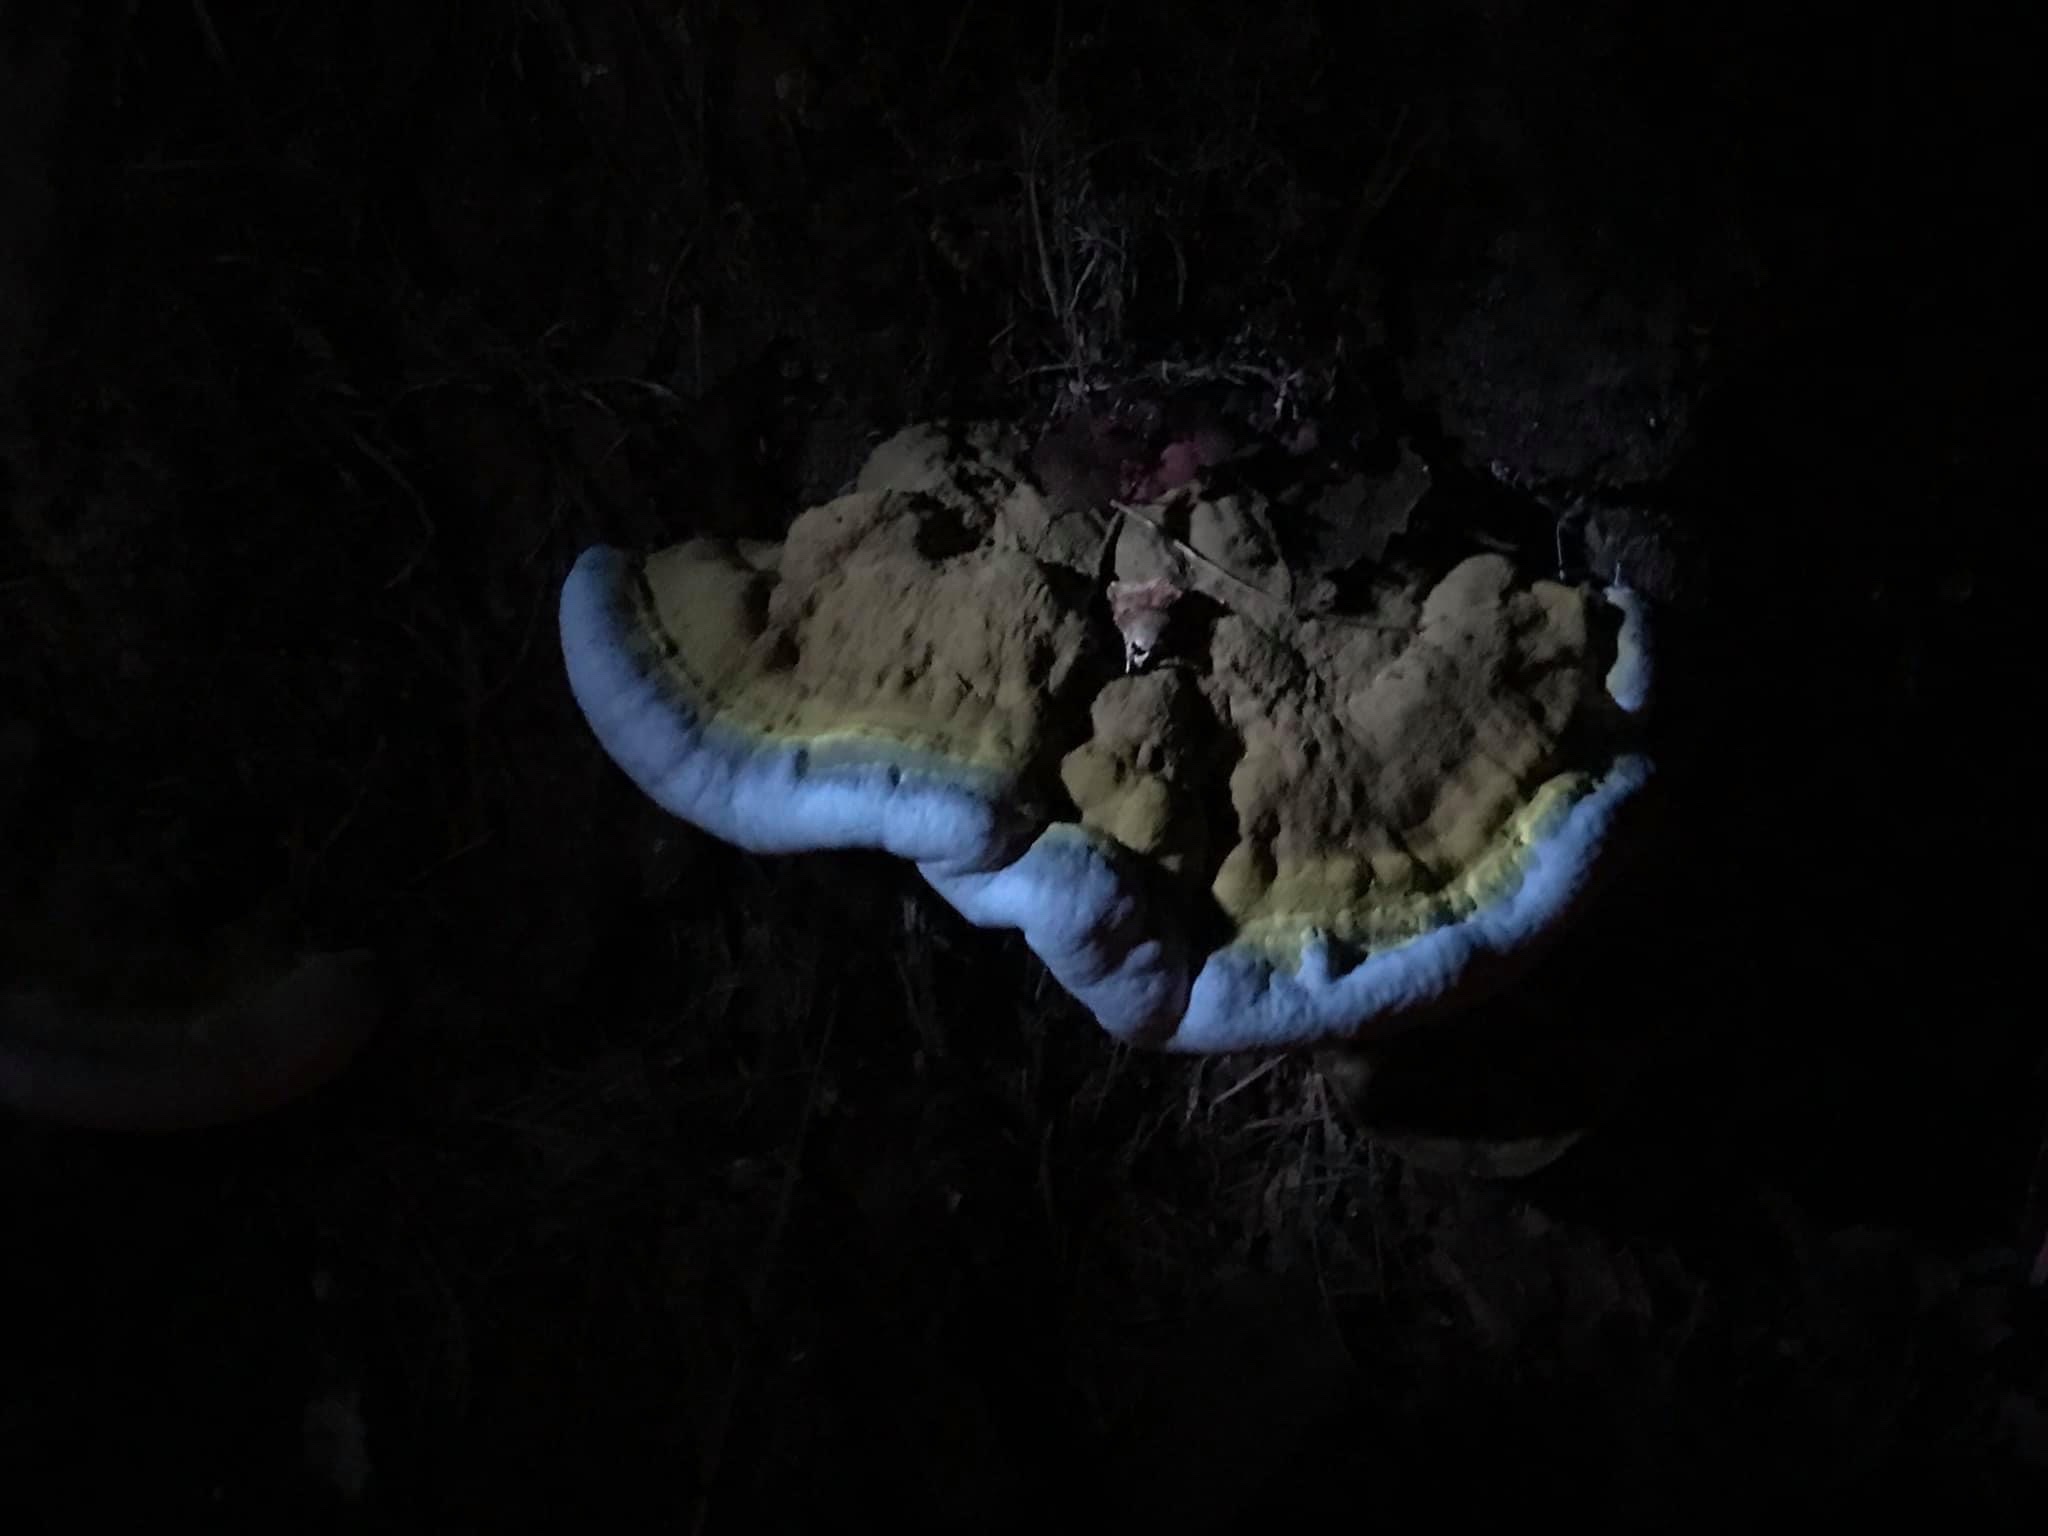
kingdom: Fungi
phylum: Basidiomycota
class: Agaricomycetes
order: Polyporales
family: Polyporaceae
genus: Ganoderma
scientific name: Ganoderma resinaceum
